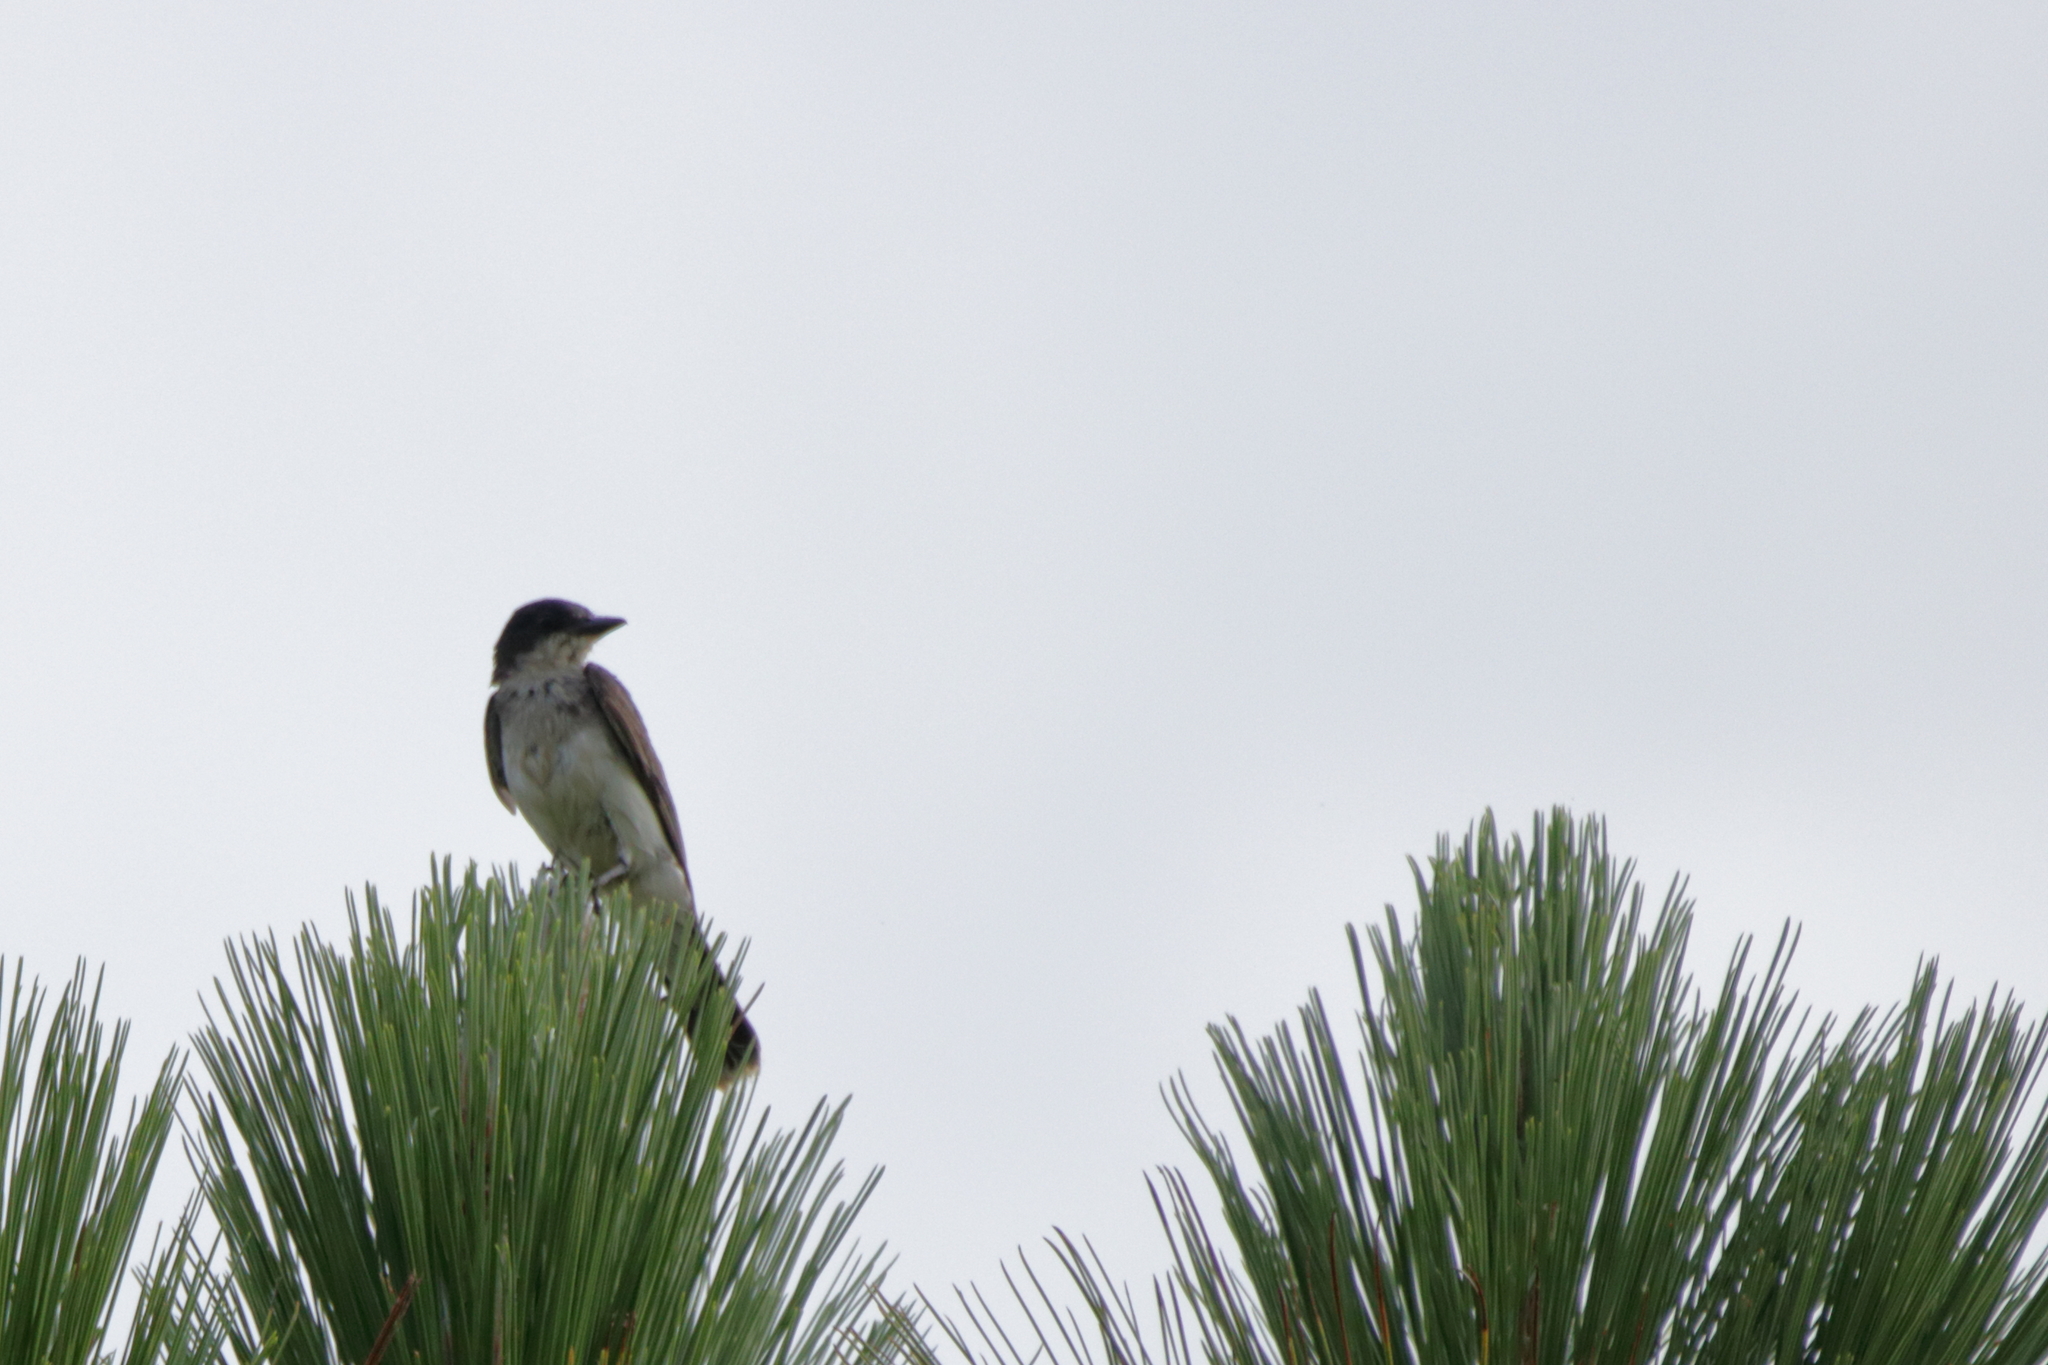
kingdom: Animalia
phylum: Chordata
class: Aves
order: Passeriformes
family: Tyrannidae
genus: Tyrannus
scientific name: Tyrannus tyrannus
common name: Eastern kingbird
